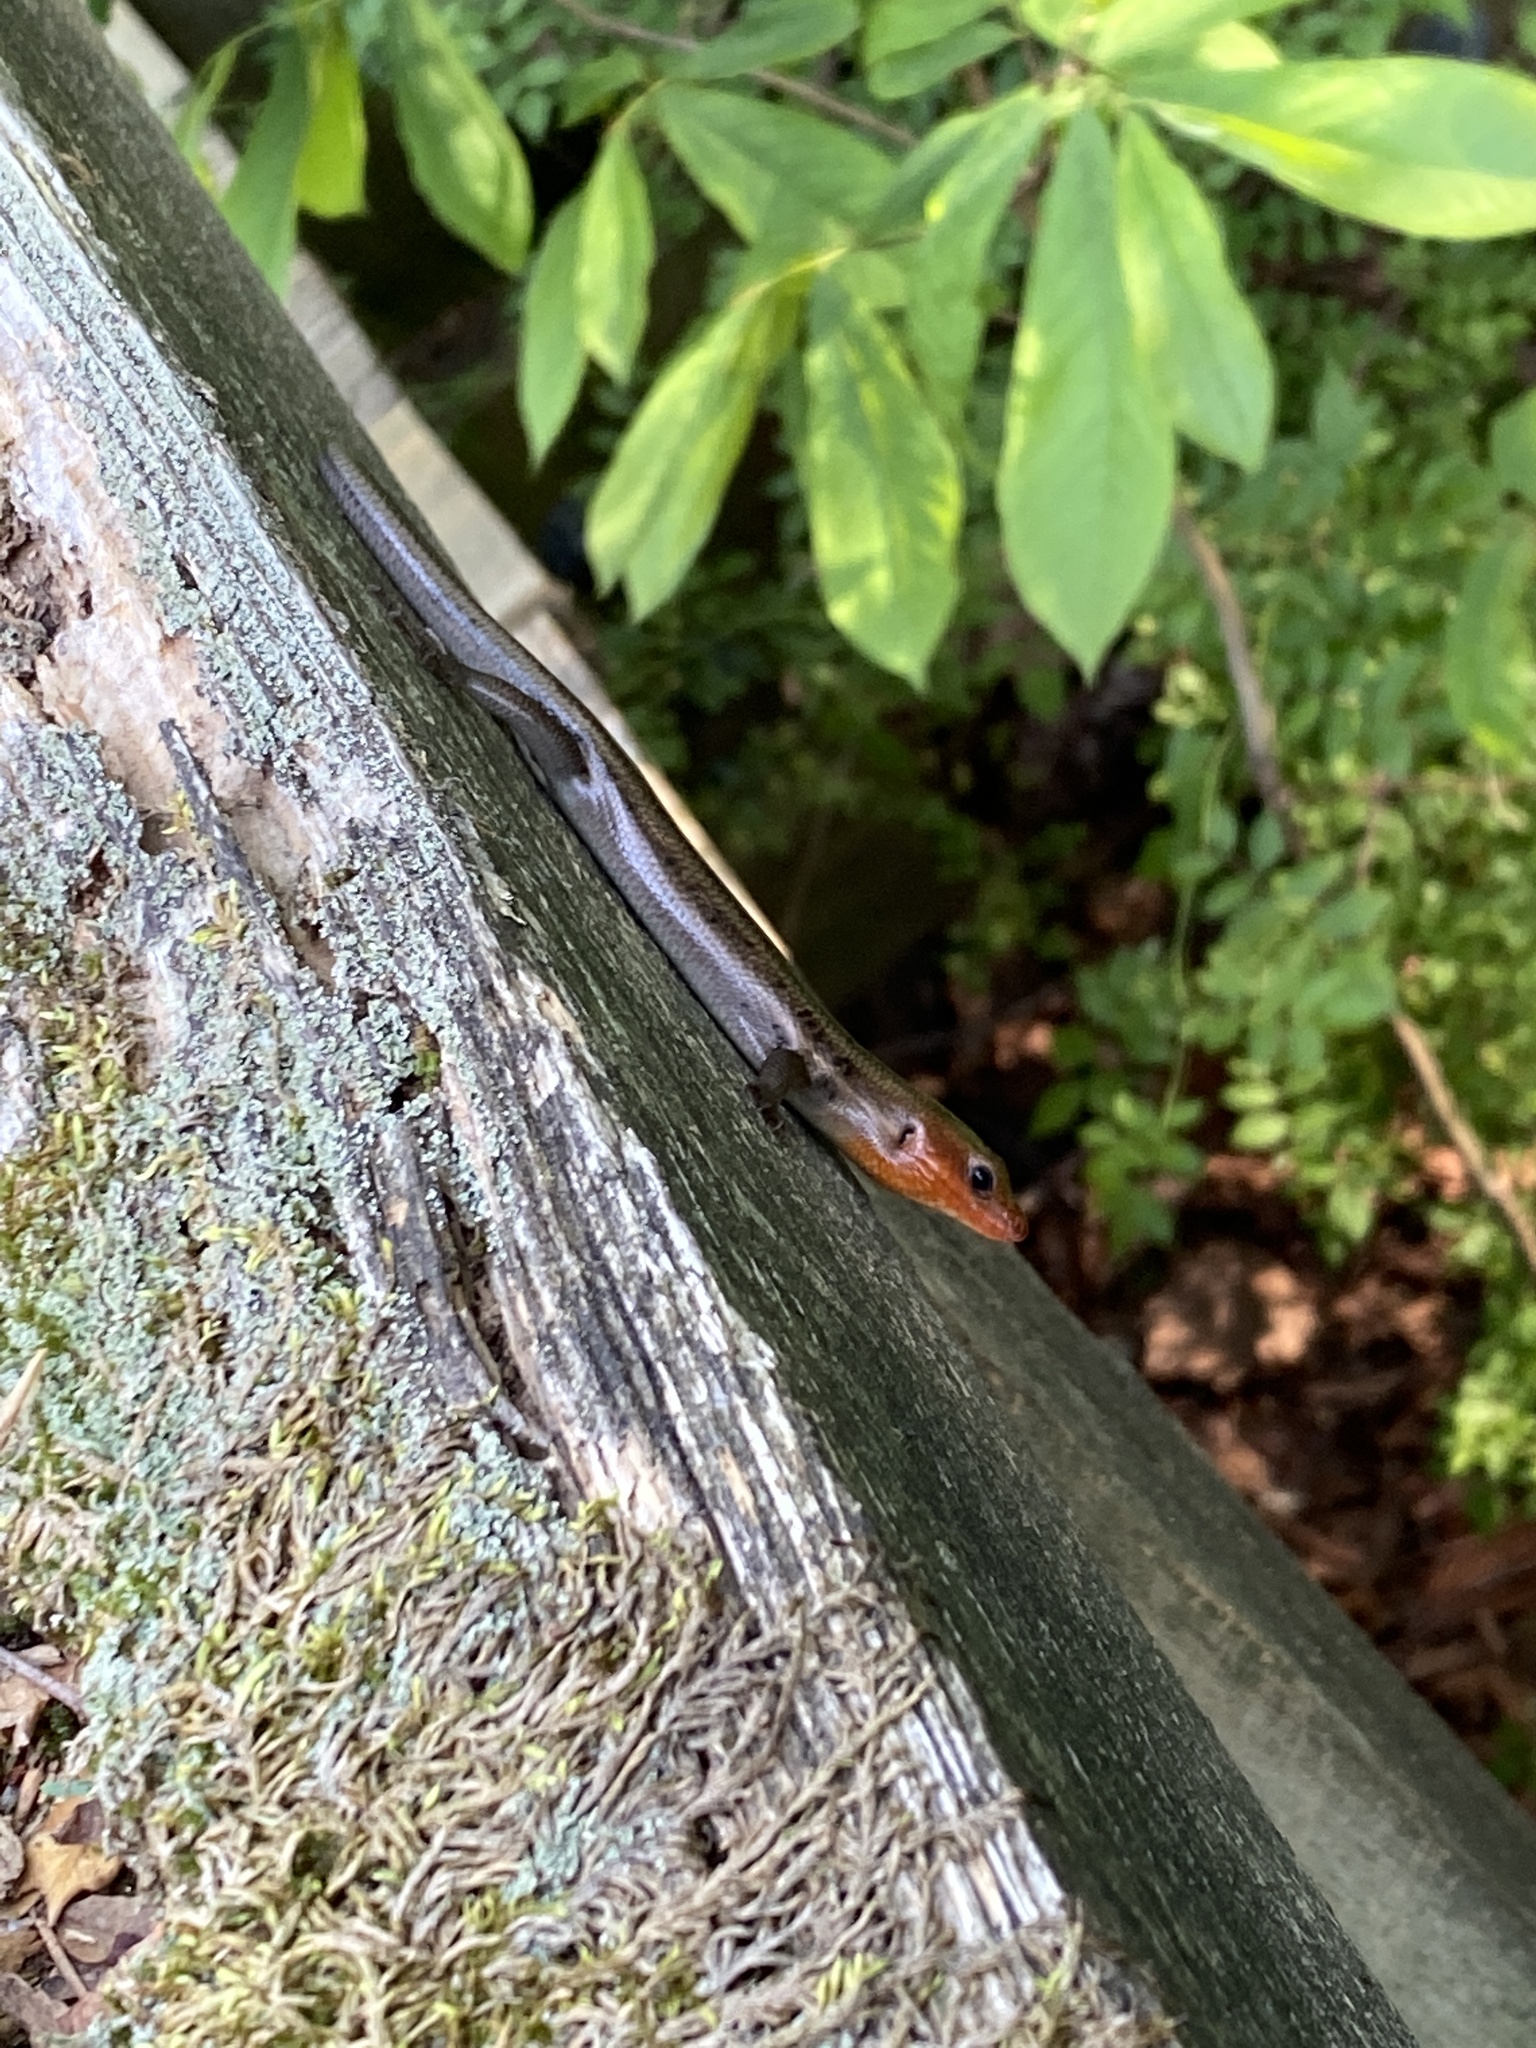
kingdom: Animalia
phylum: Chordata
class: Squamata
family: Scincidae
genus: Plestiodon
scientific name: Plestiodon fasciatus
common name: Five-lined skink
